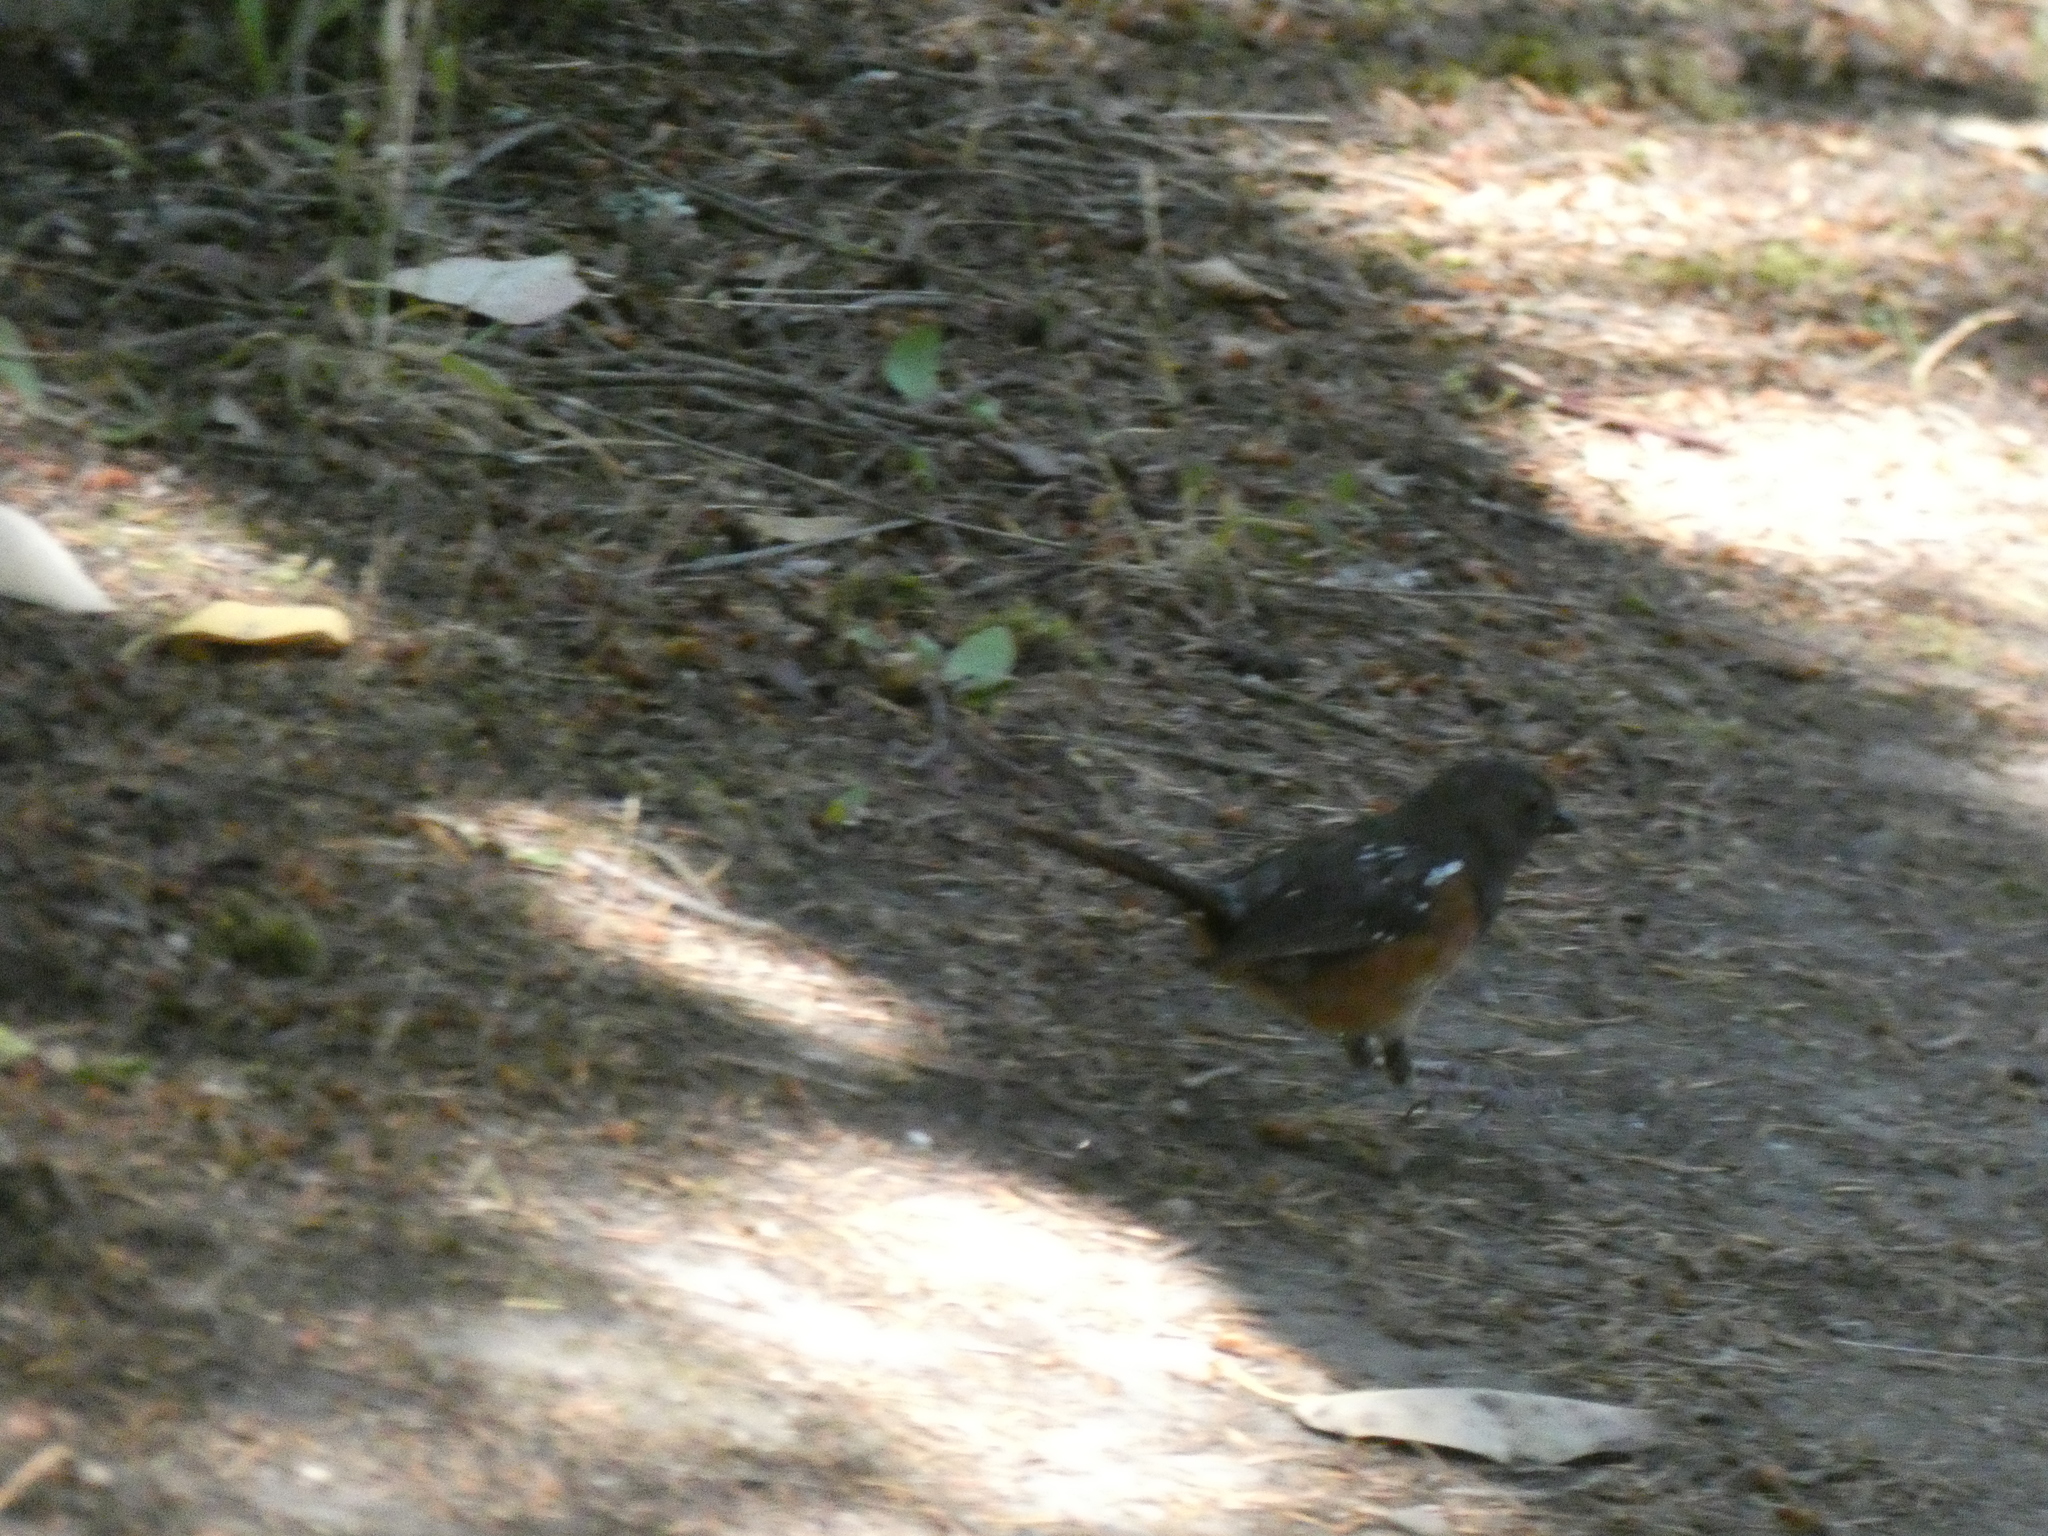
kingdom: Animalia
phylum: Chordata
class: Aves
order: Passeriformes
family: Passerellidae
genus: Pipilo
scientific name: Pipilo maculatus
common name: Spotted towhee
